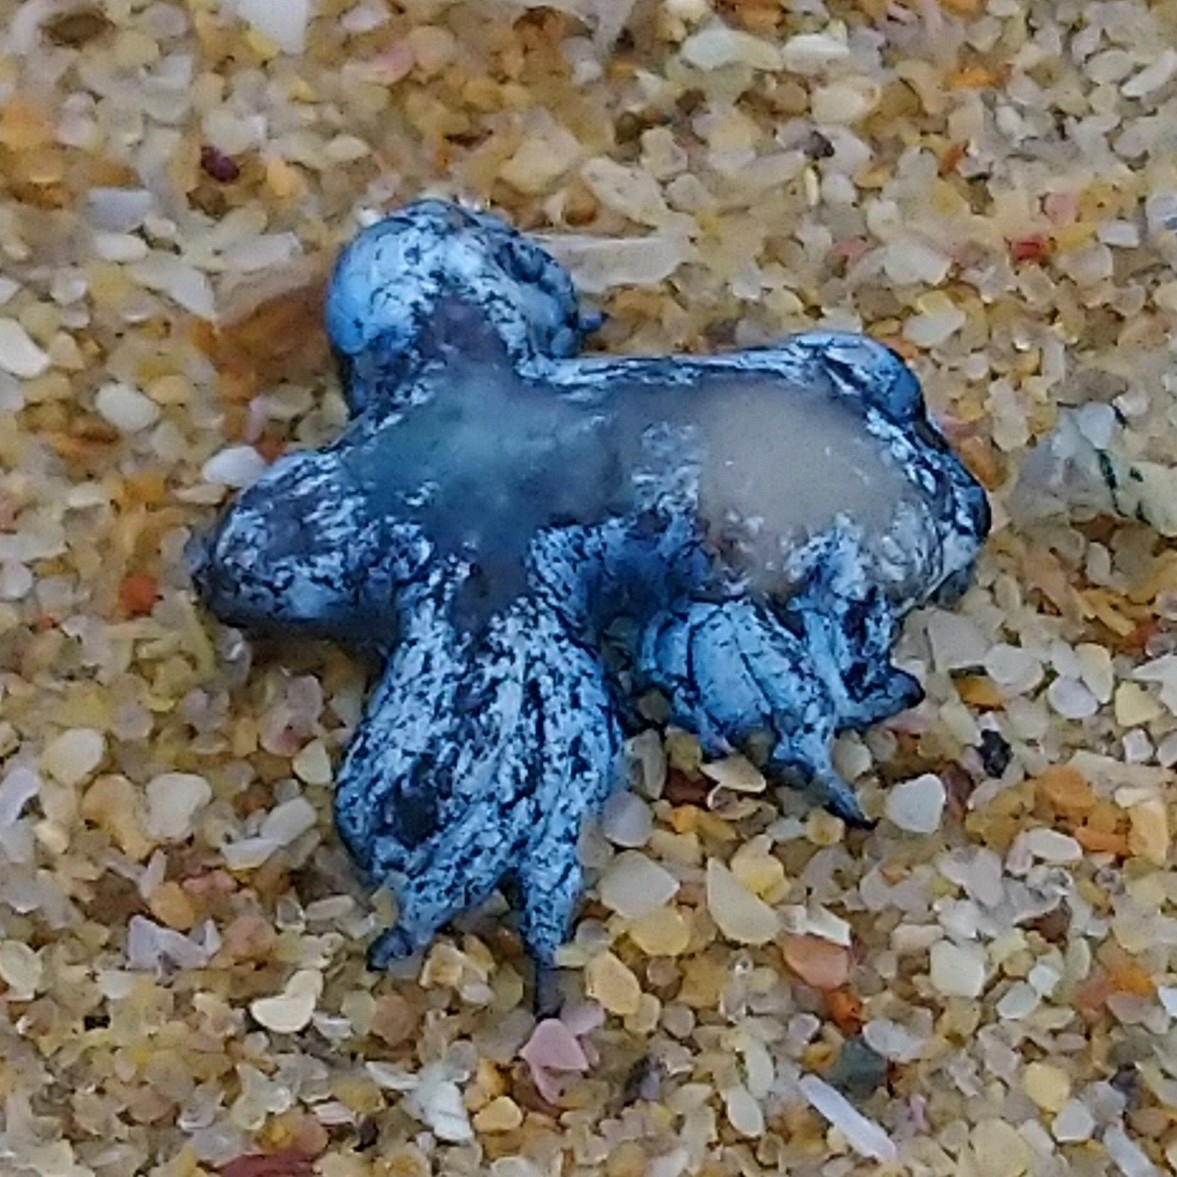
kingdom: Animalia
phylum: Mollusca
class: Gastropoda
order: Nudibranchia
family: Glaucidae
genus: Glaucus
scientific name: Glaucus atlanticus
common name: Purple ocean slug
